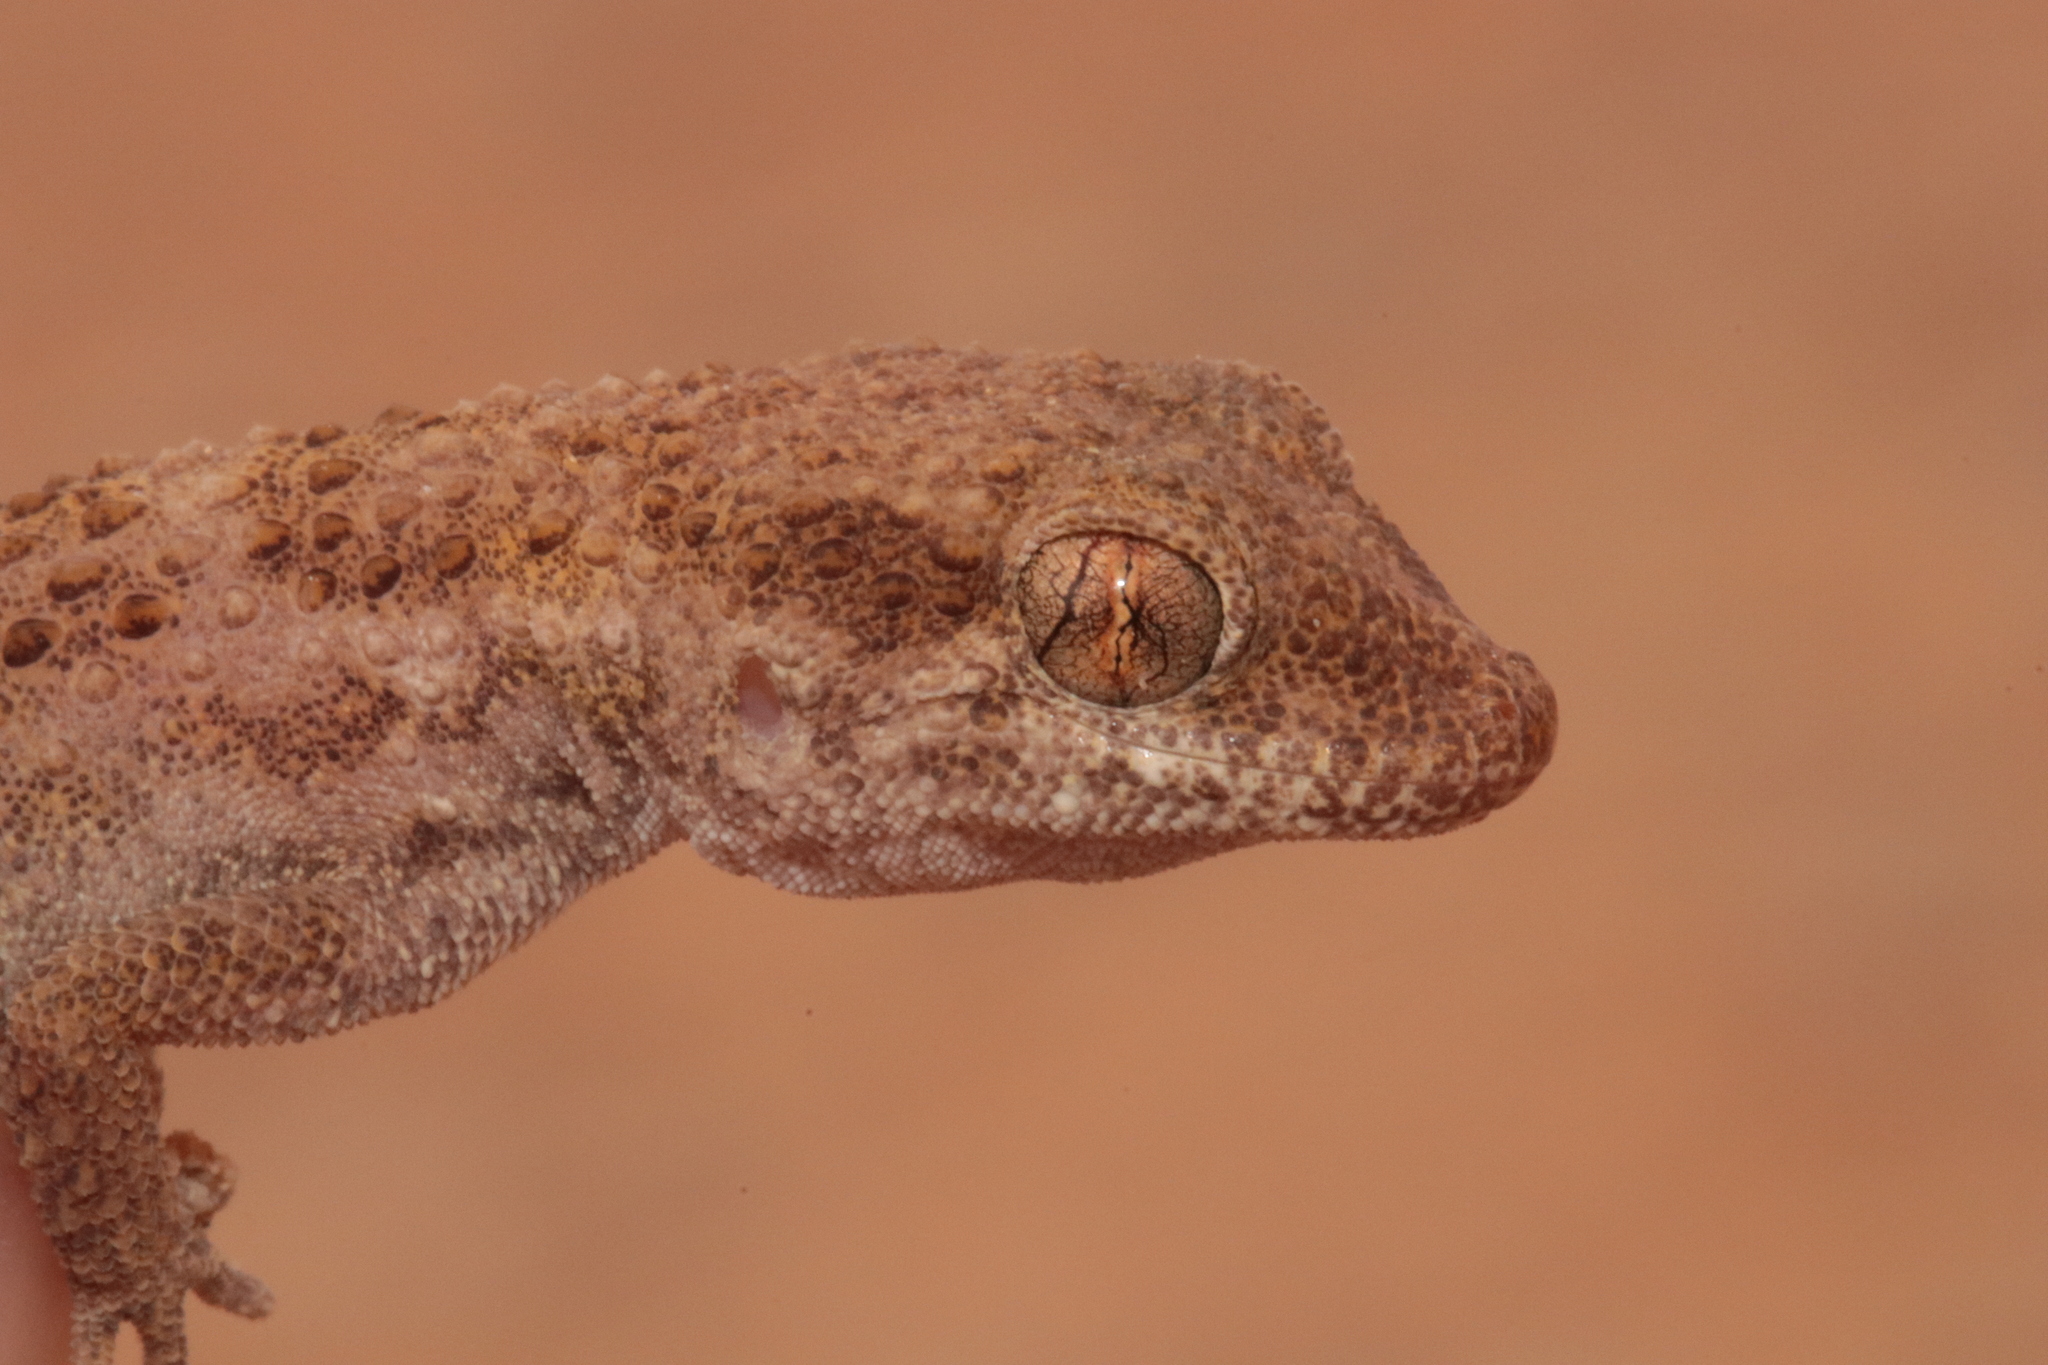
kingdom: Animalia
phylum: Chordata
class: Squamata
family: Gekkonidae
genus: Bunopus
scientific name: Bunopus tuberculatus
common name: Southern tuberculated gecko
